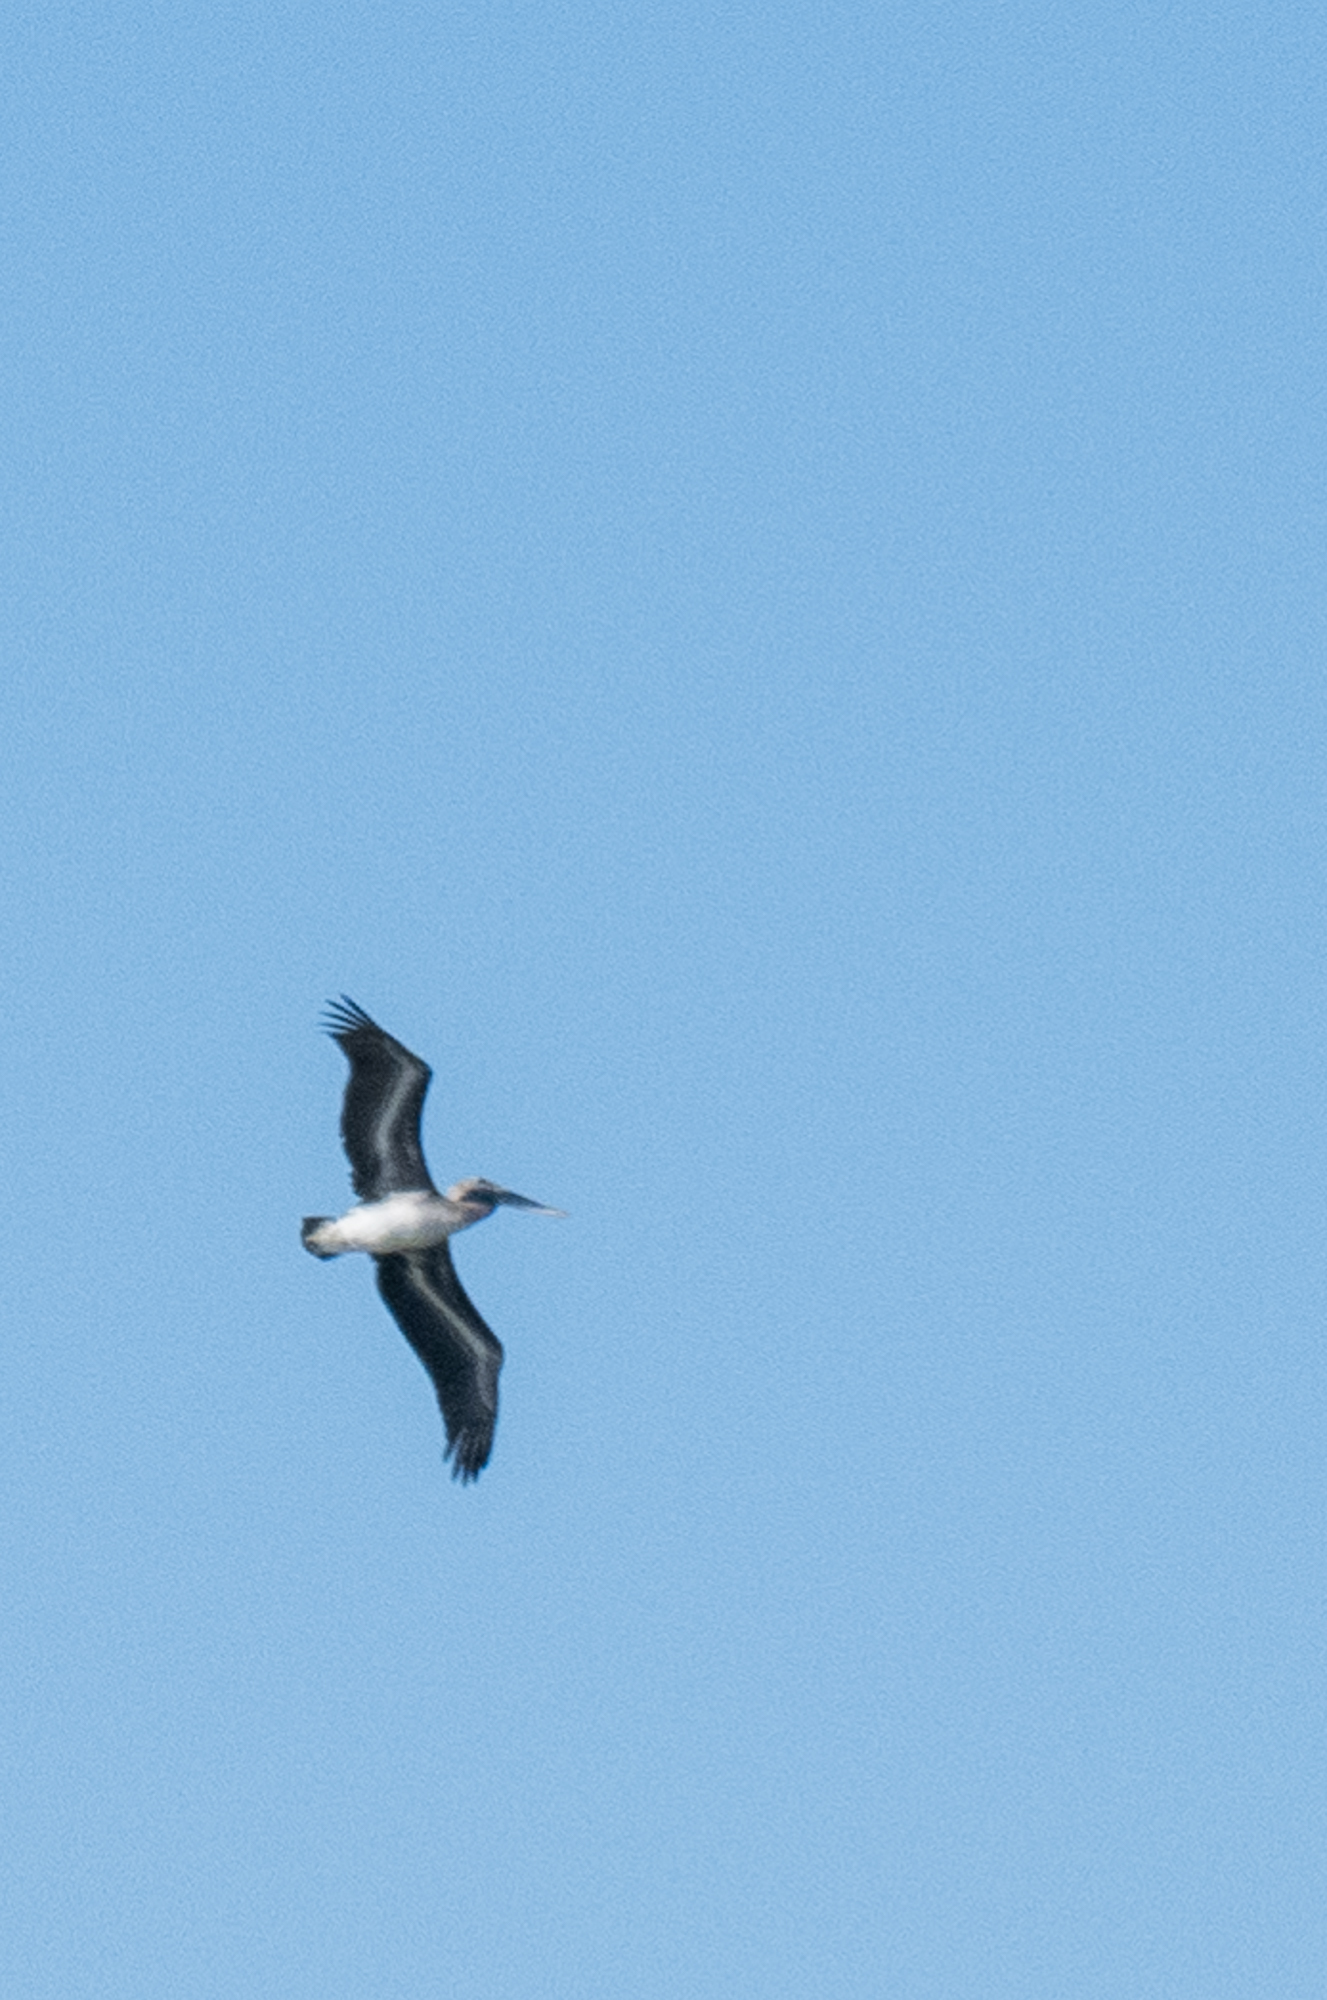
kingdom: Animalia
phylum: Chordata
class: Aves
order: Pelecaniformes
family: Pelecanidae
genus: Pelecanus
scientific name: Pelecanus occidentalis
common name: Brown pelican
